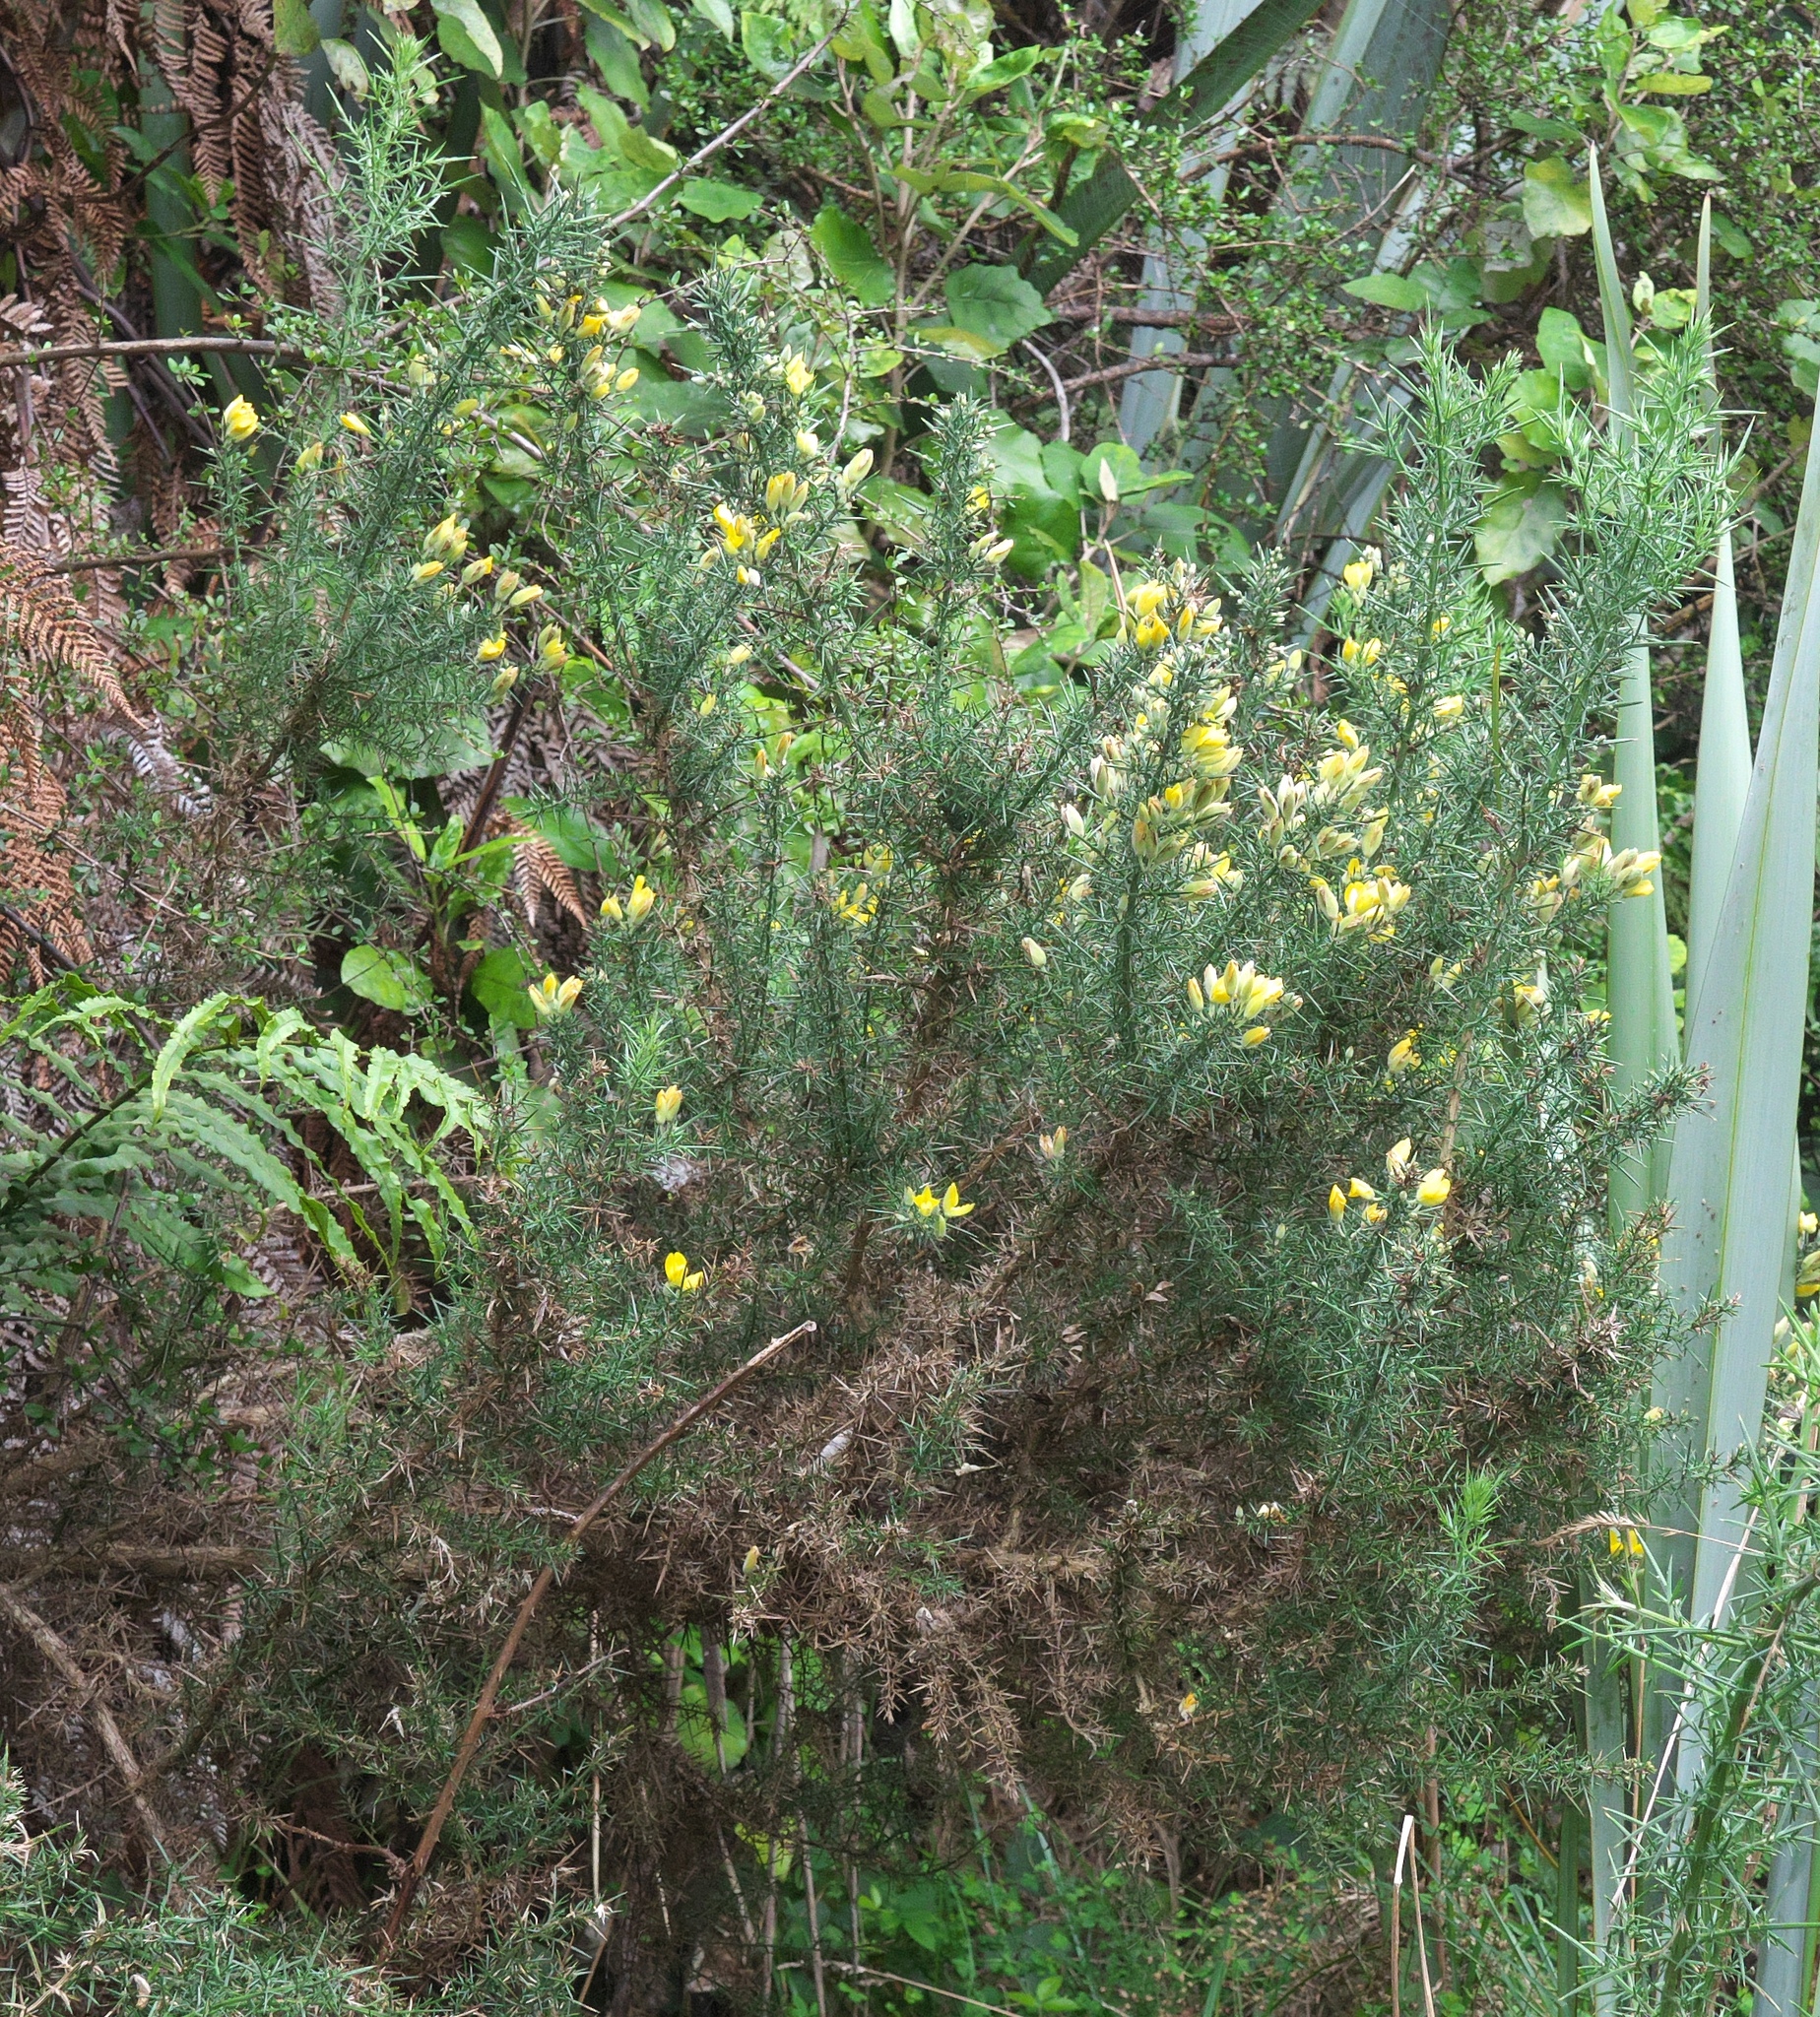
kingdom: Plantae
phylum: Tracheophyta
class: Magnoliopsida
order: Fabales
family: Fabaceae
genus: Ulex
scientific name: Ulex europaeus
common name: Common gorse
